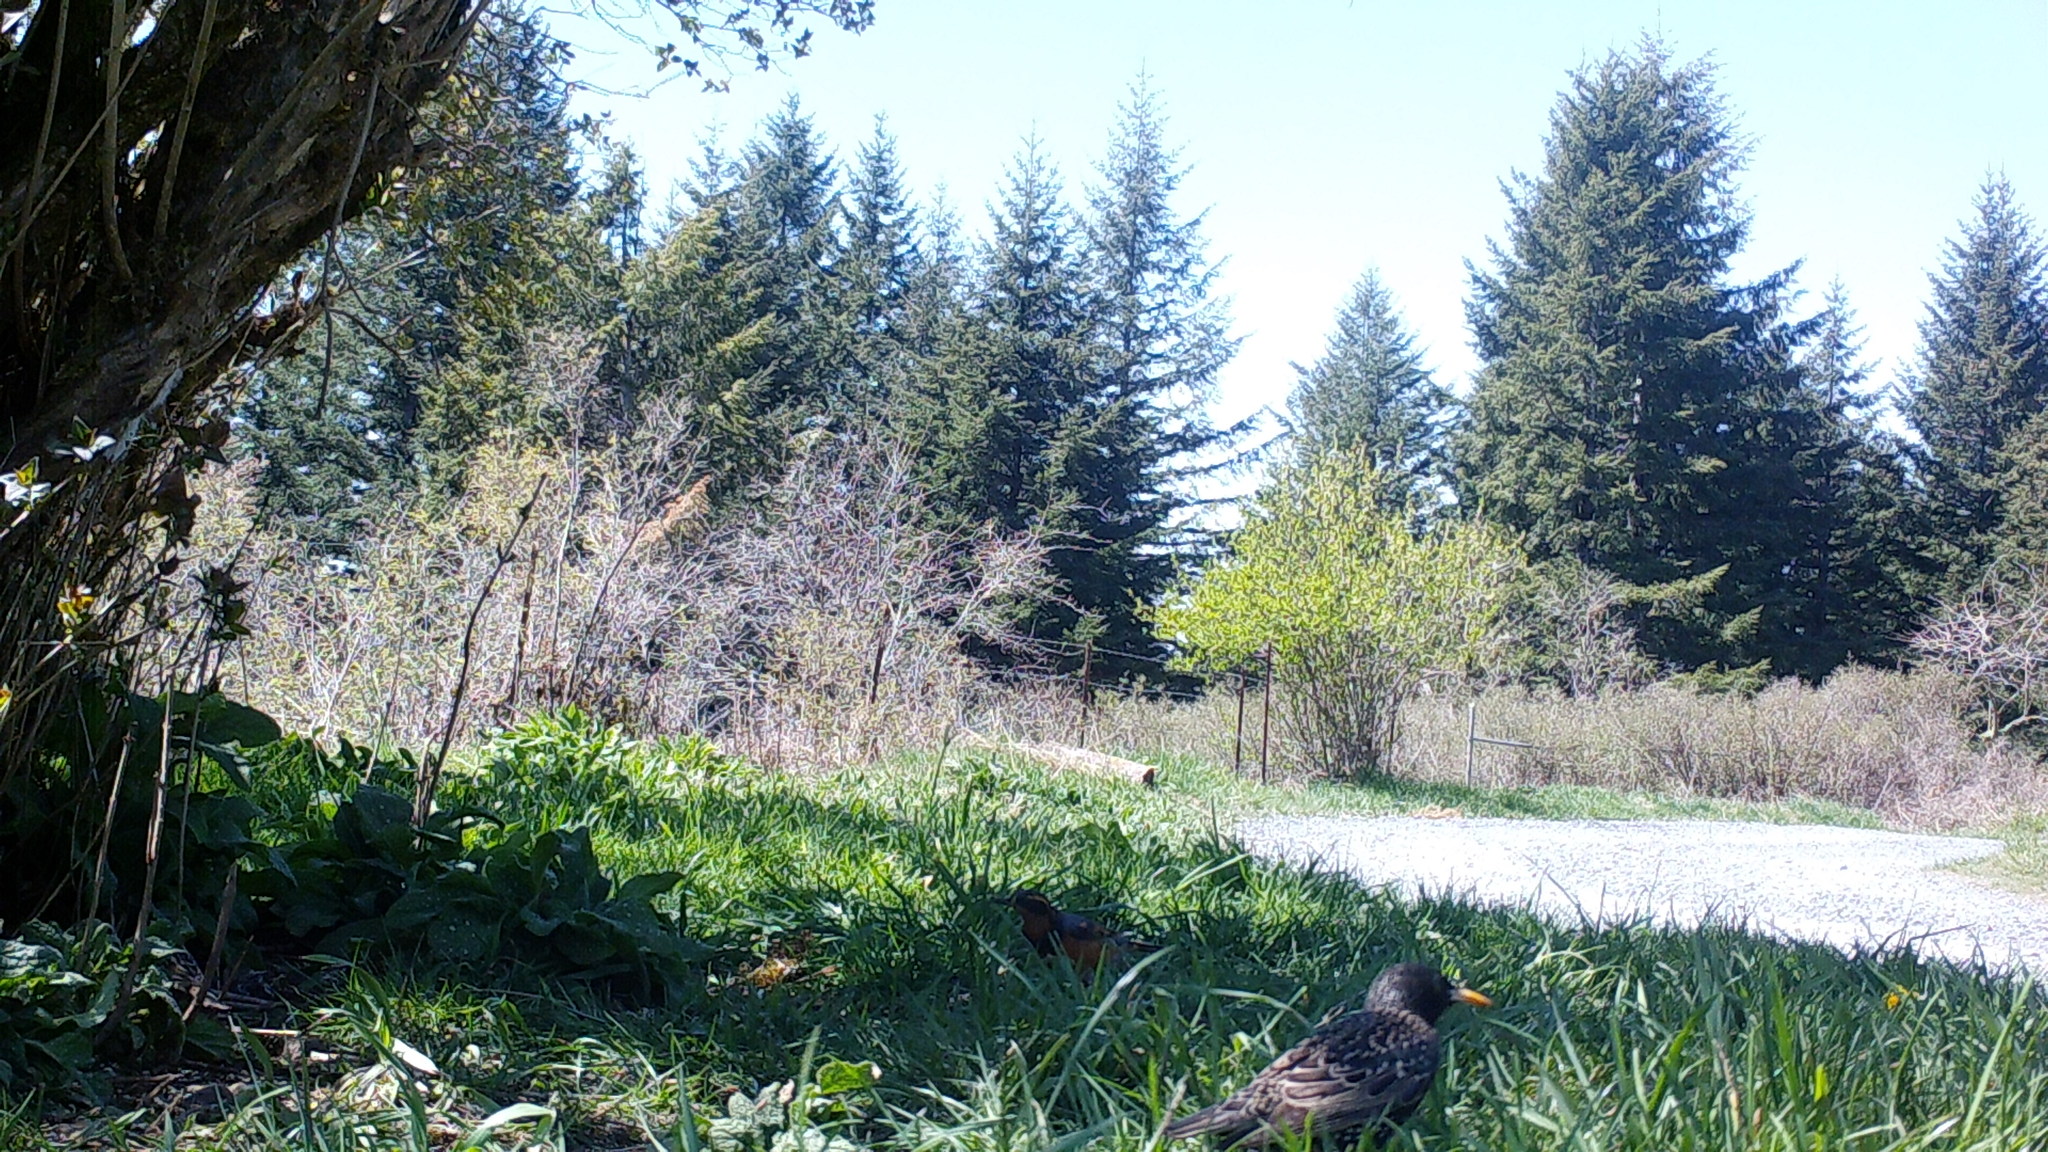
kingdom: Animalia
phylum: Chordata
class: Aves
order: Passeriformes
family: Sturnidae
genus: Sturnus
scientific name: Sturnus vulgaris
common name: Common starling
